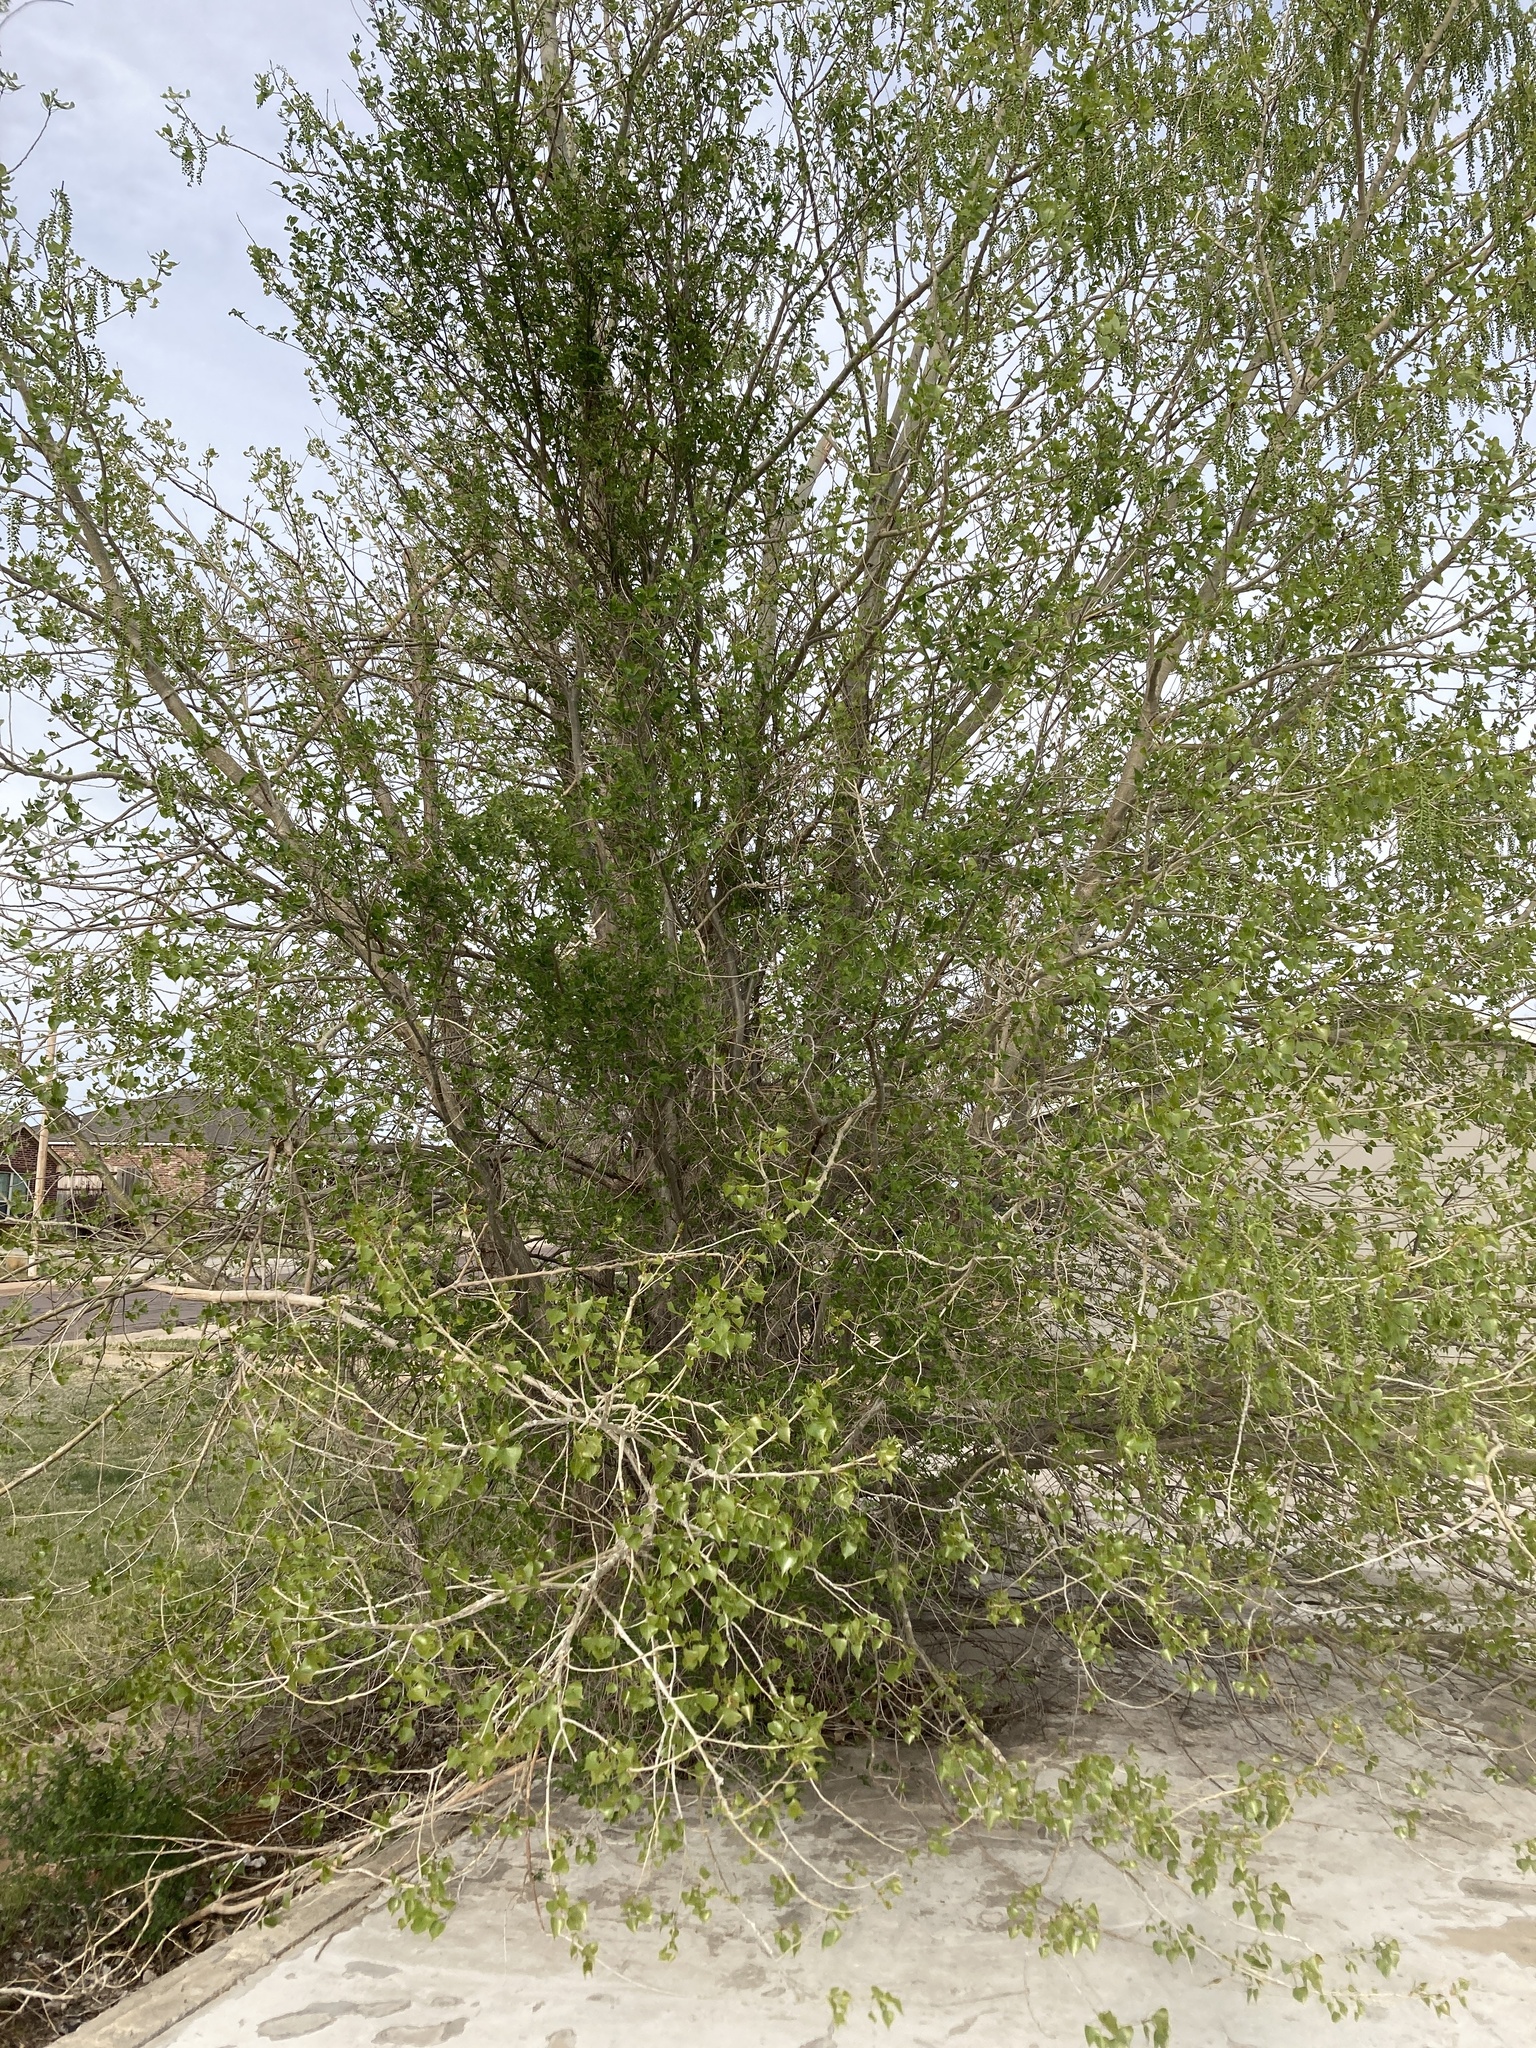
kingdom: Plantae
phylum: Tracheophyta
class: Magnoliopsida
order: Malpighiales
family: Salicaceae
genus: Populus
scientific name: Populus deltoides
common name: Eastern cottonwood
